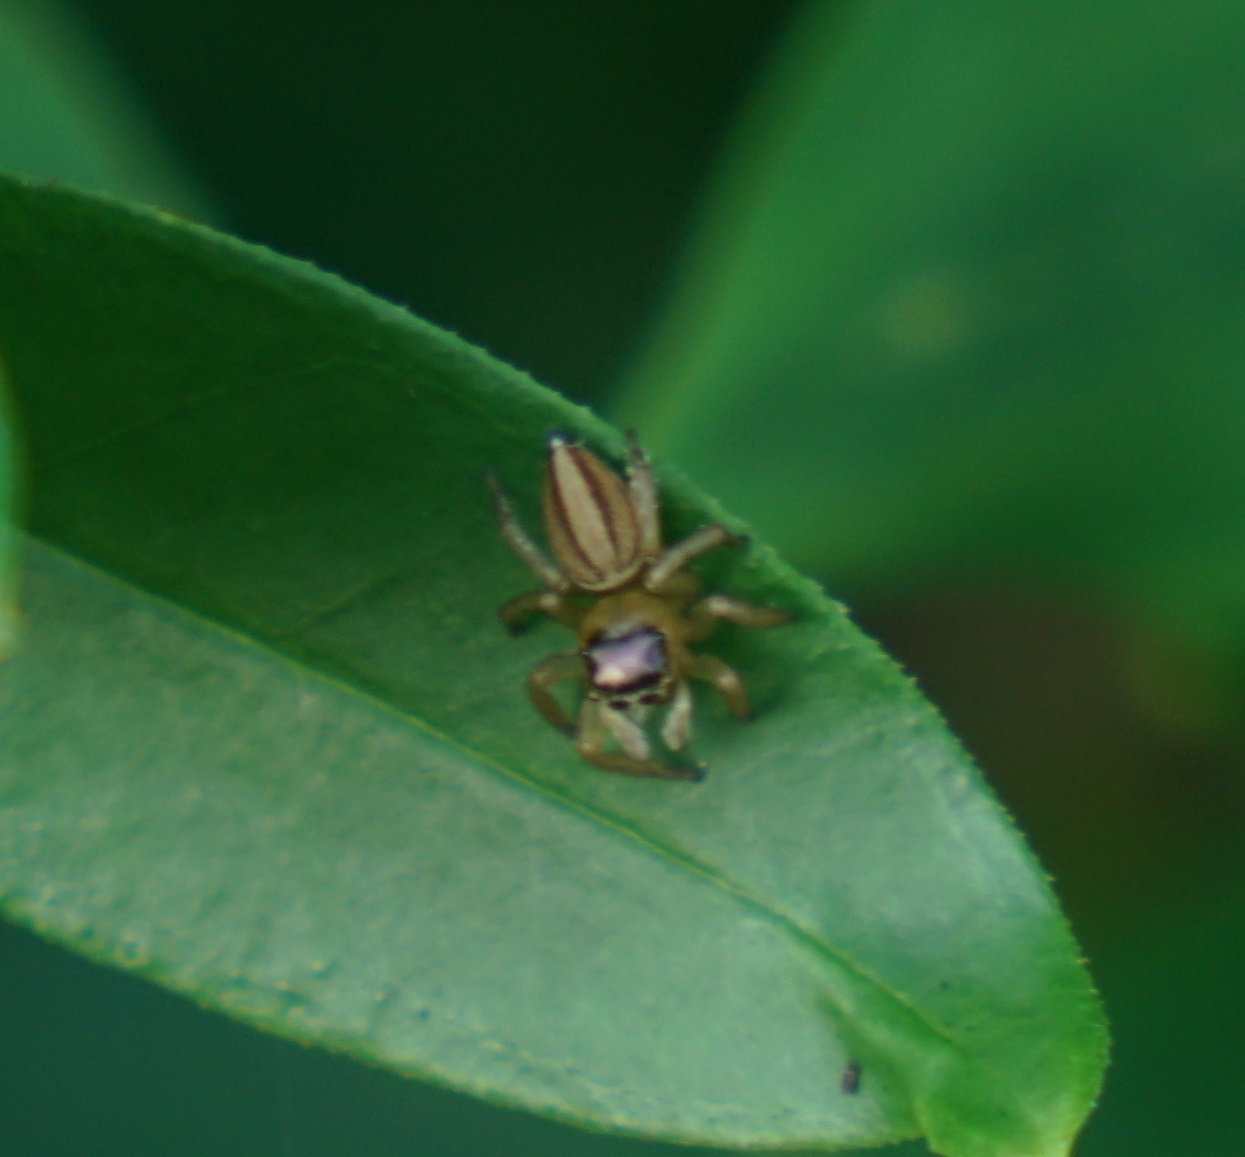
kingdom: Animalia
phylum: Arthropoda
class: Arachnida
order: Araneae
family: Salticidae
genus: Maratus
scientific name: Maratus scutulatus
